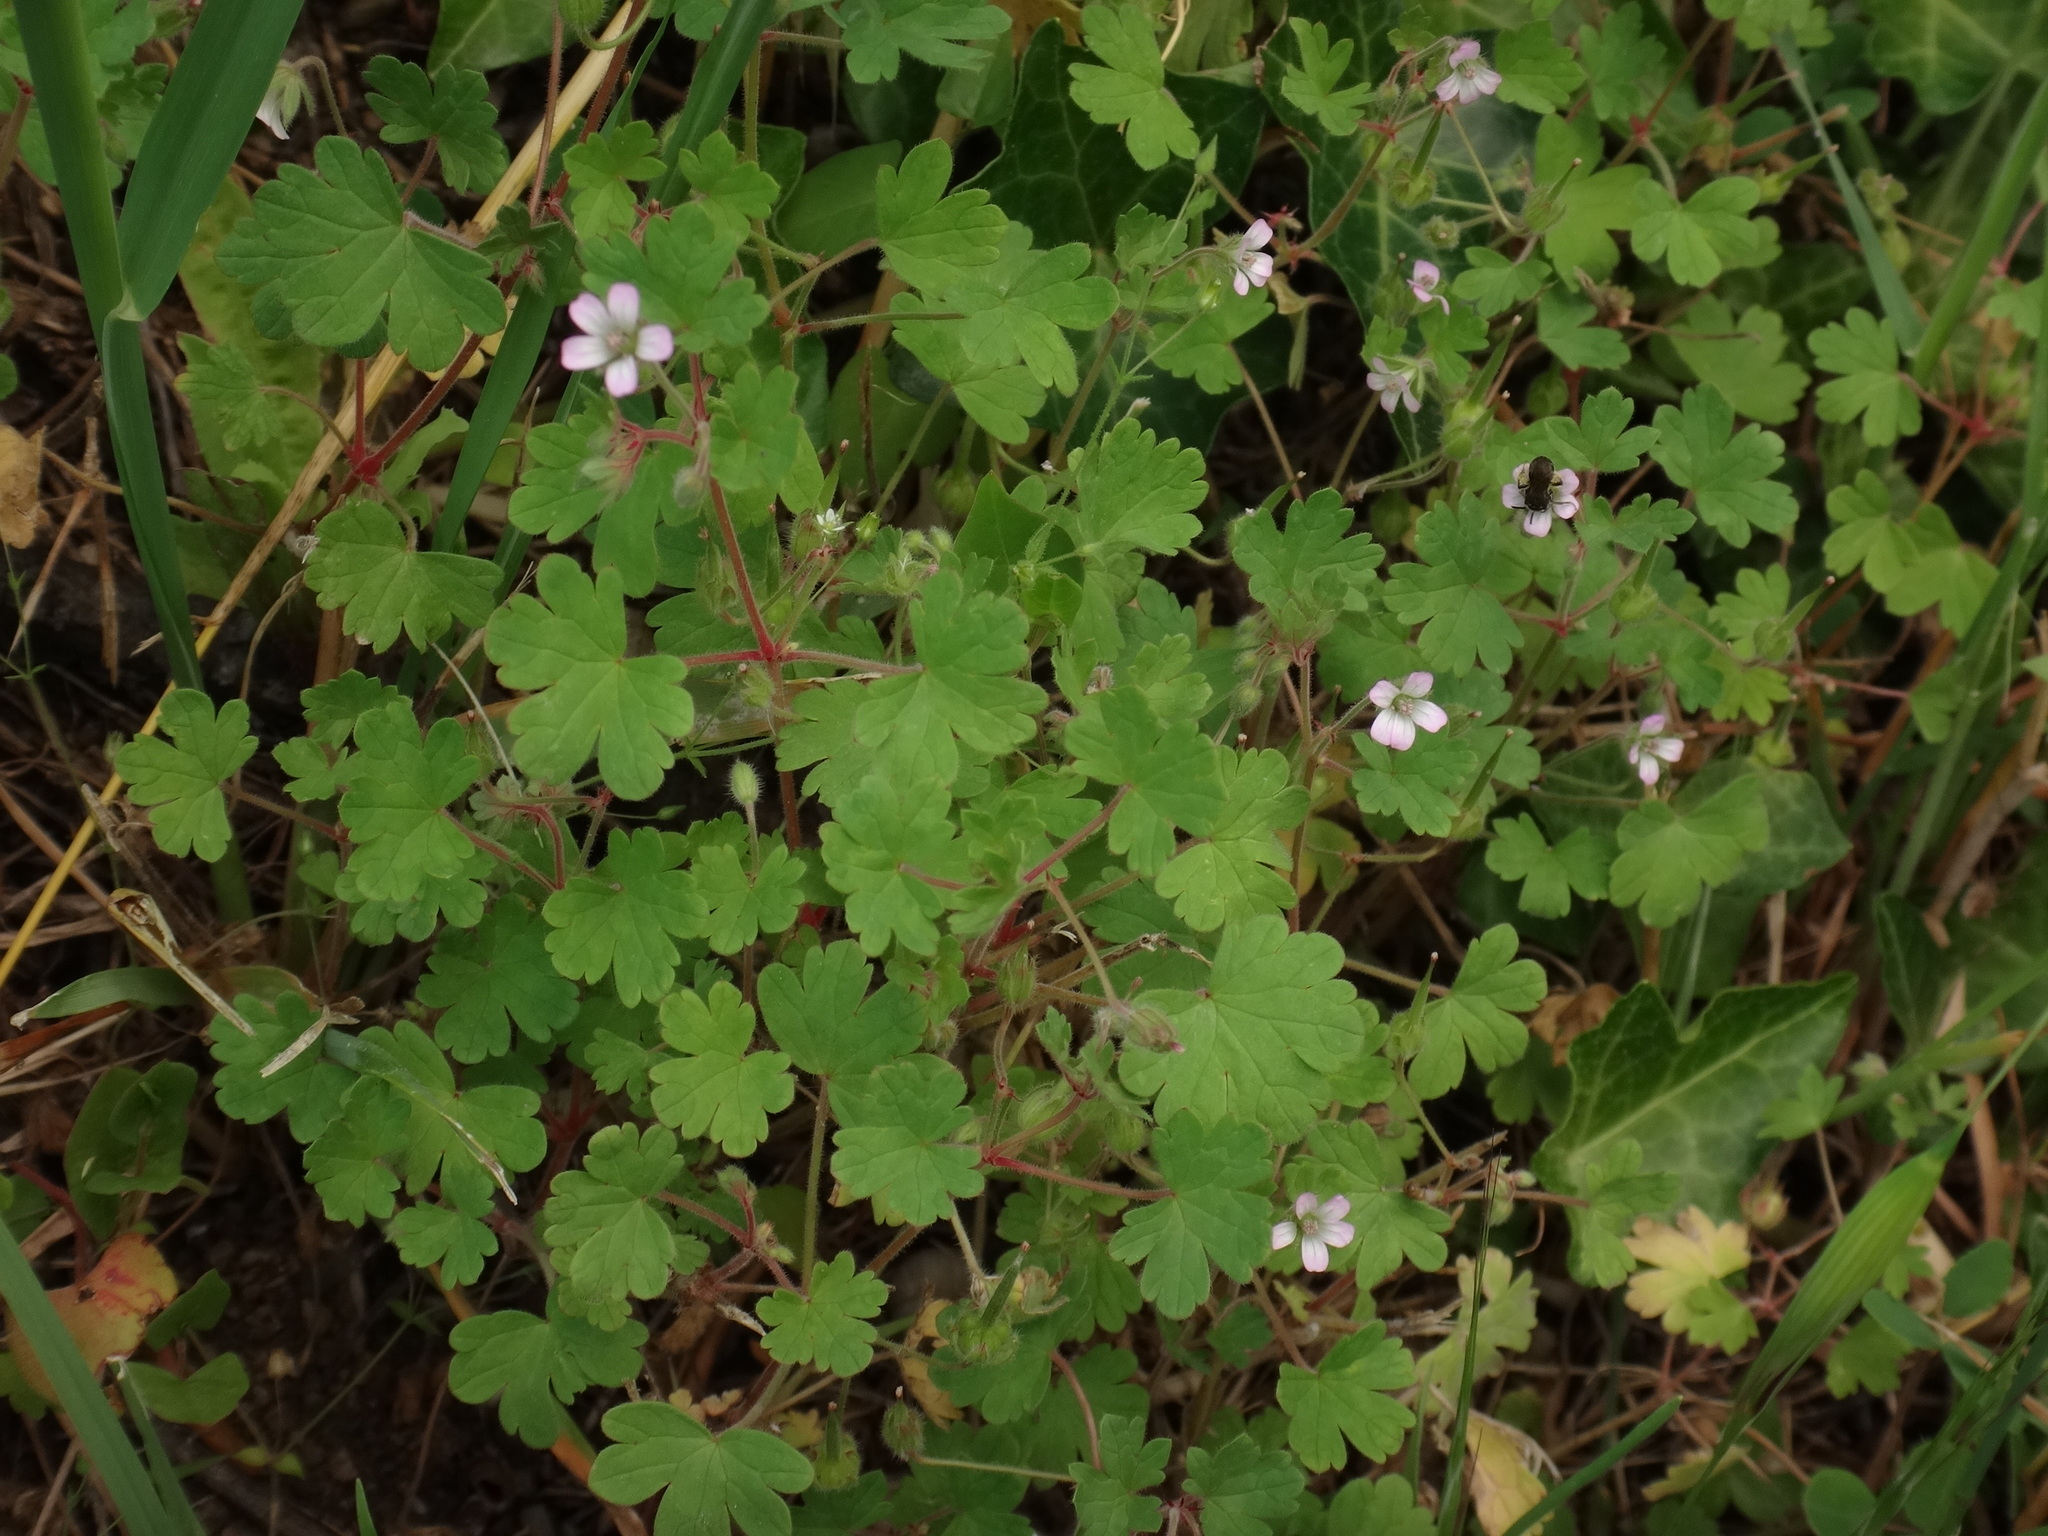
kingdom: Plantae
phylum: Tracheophyta
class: Magnoliopsida
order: Geraniales
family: Geraniaceae
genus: Geranium
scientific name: Geranium rotundifolium
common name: Round-leaved crane's-bill
